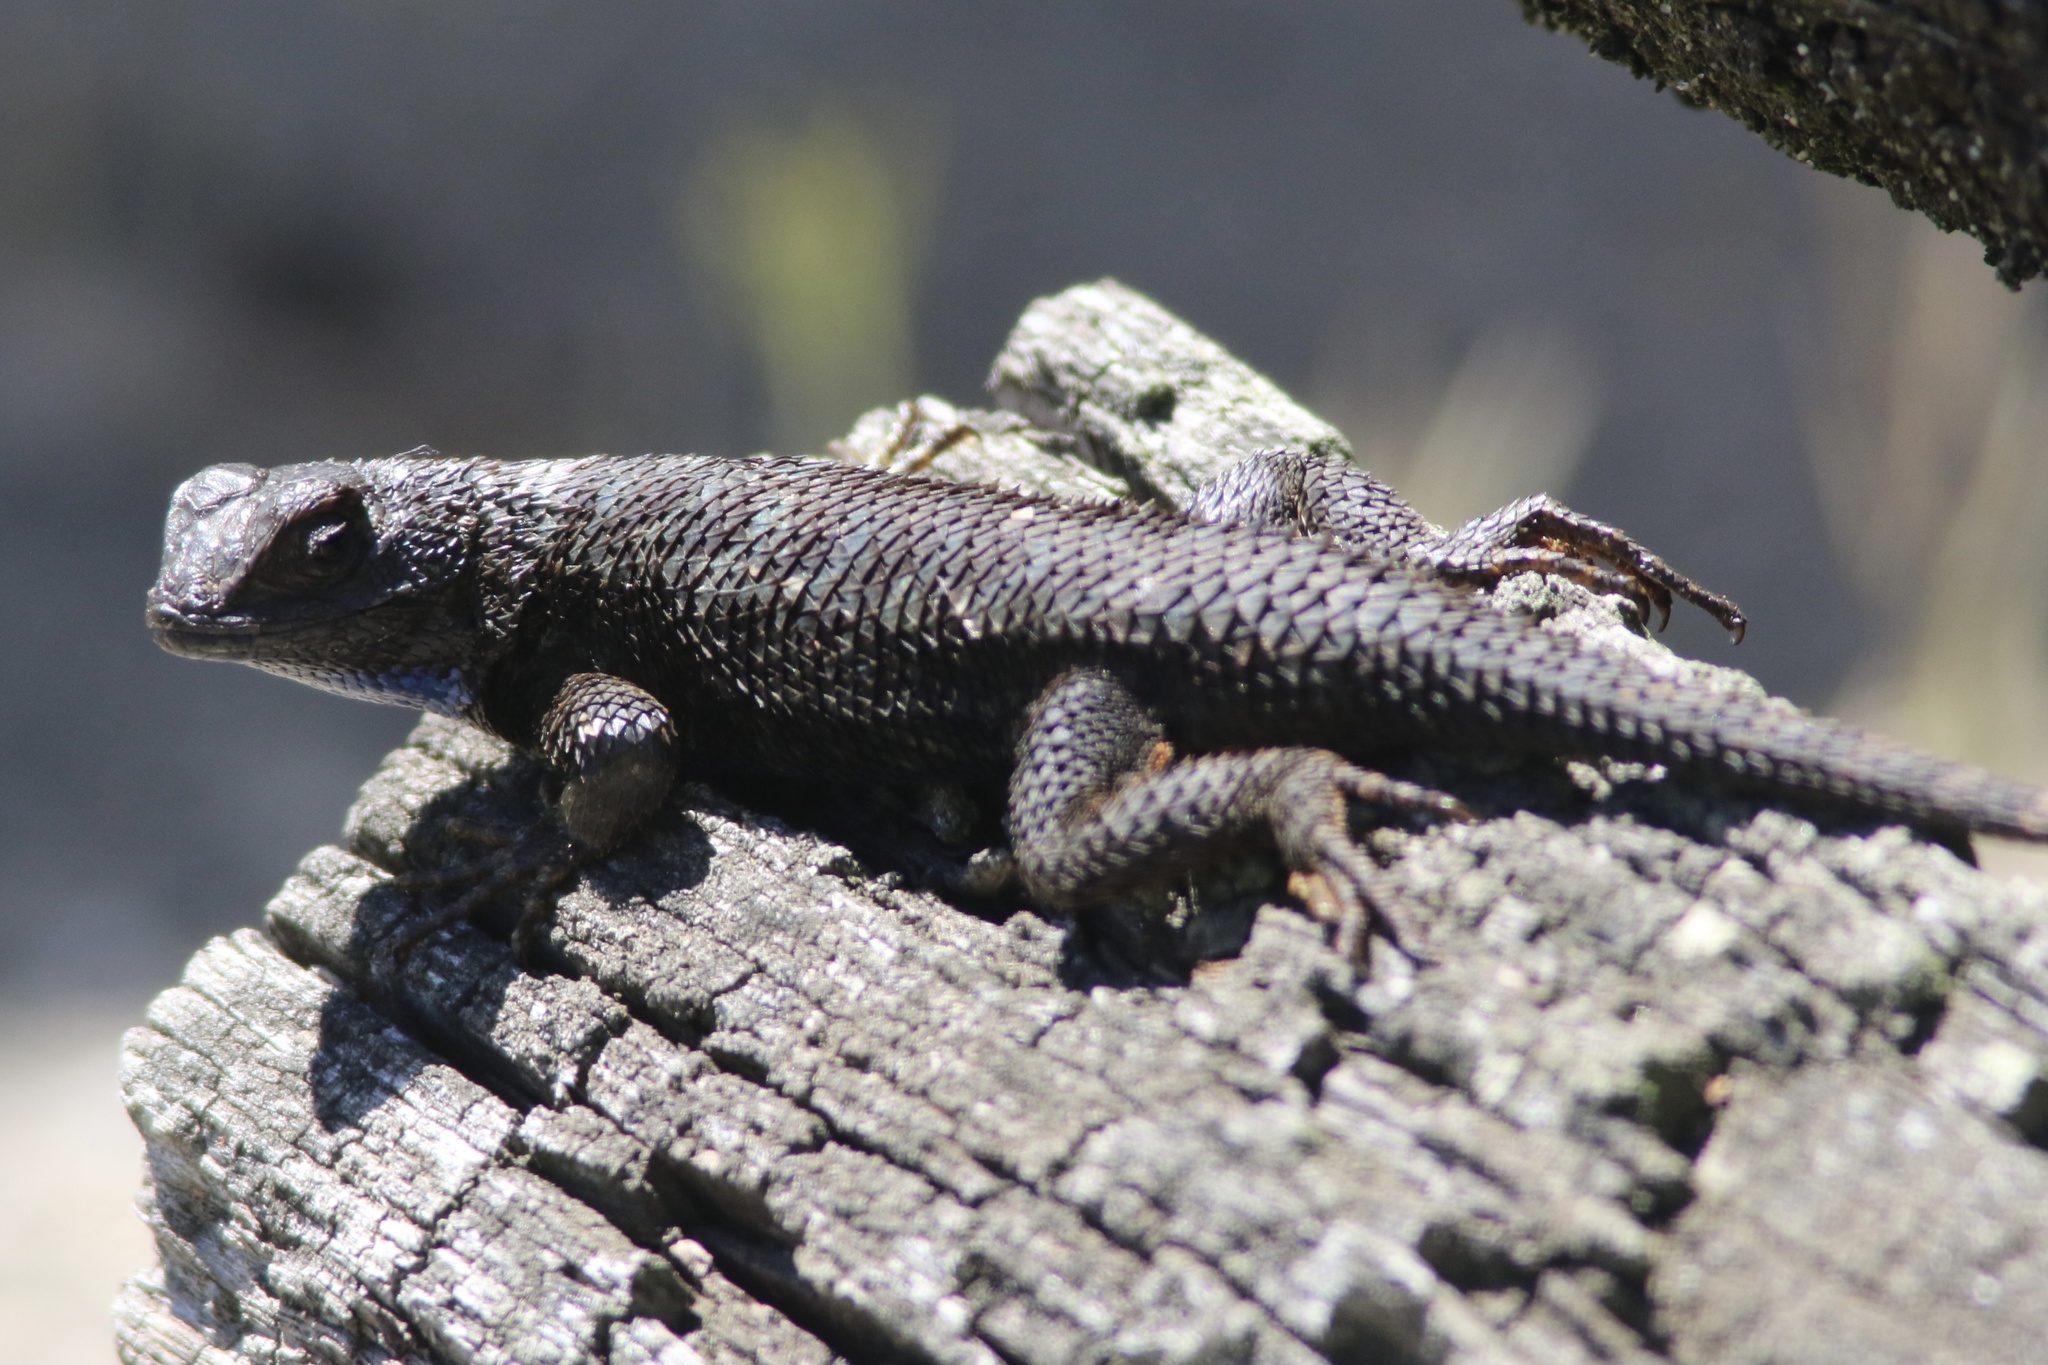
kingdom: Animalia
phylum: Chordata
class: Squamata
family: Phrynosomatidae
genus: Sceloporus
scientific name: Sceloporus occidentalis
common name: Western fence lizard
